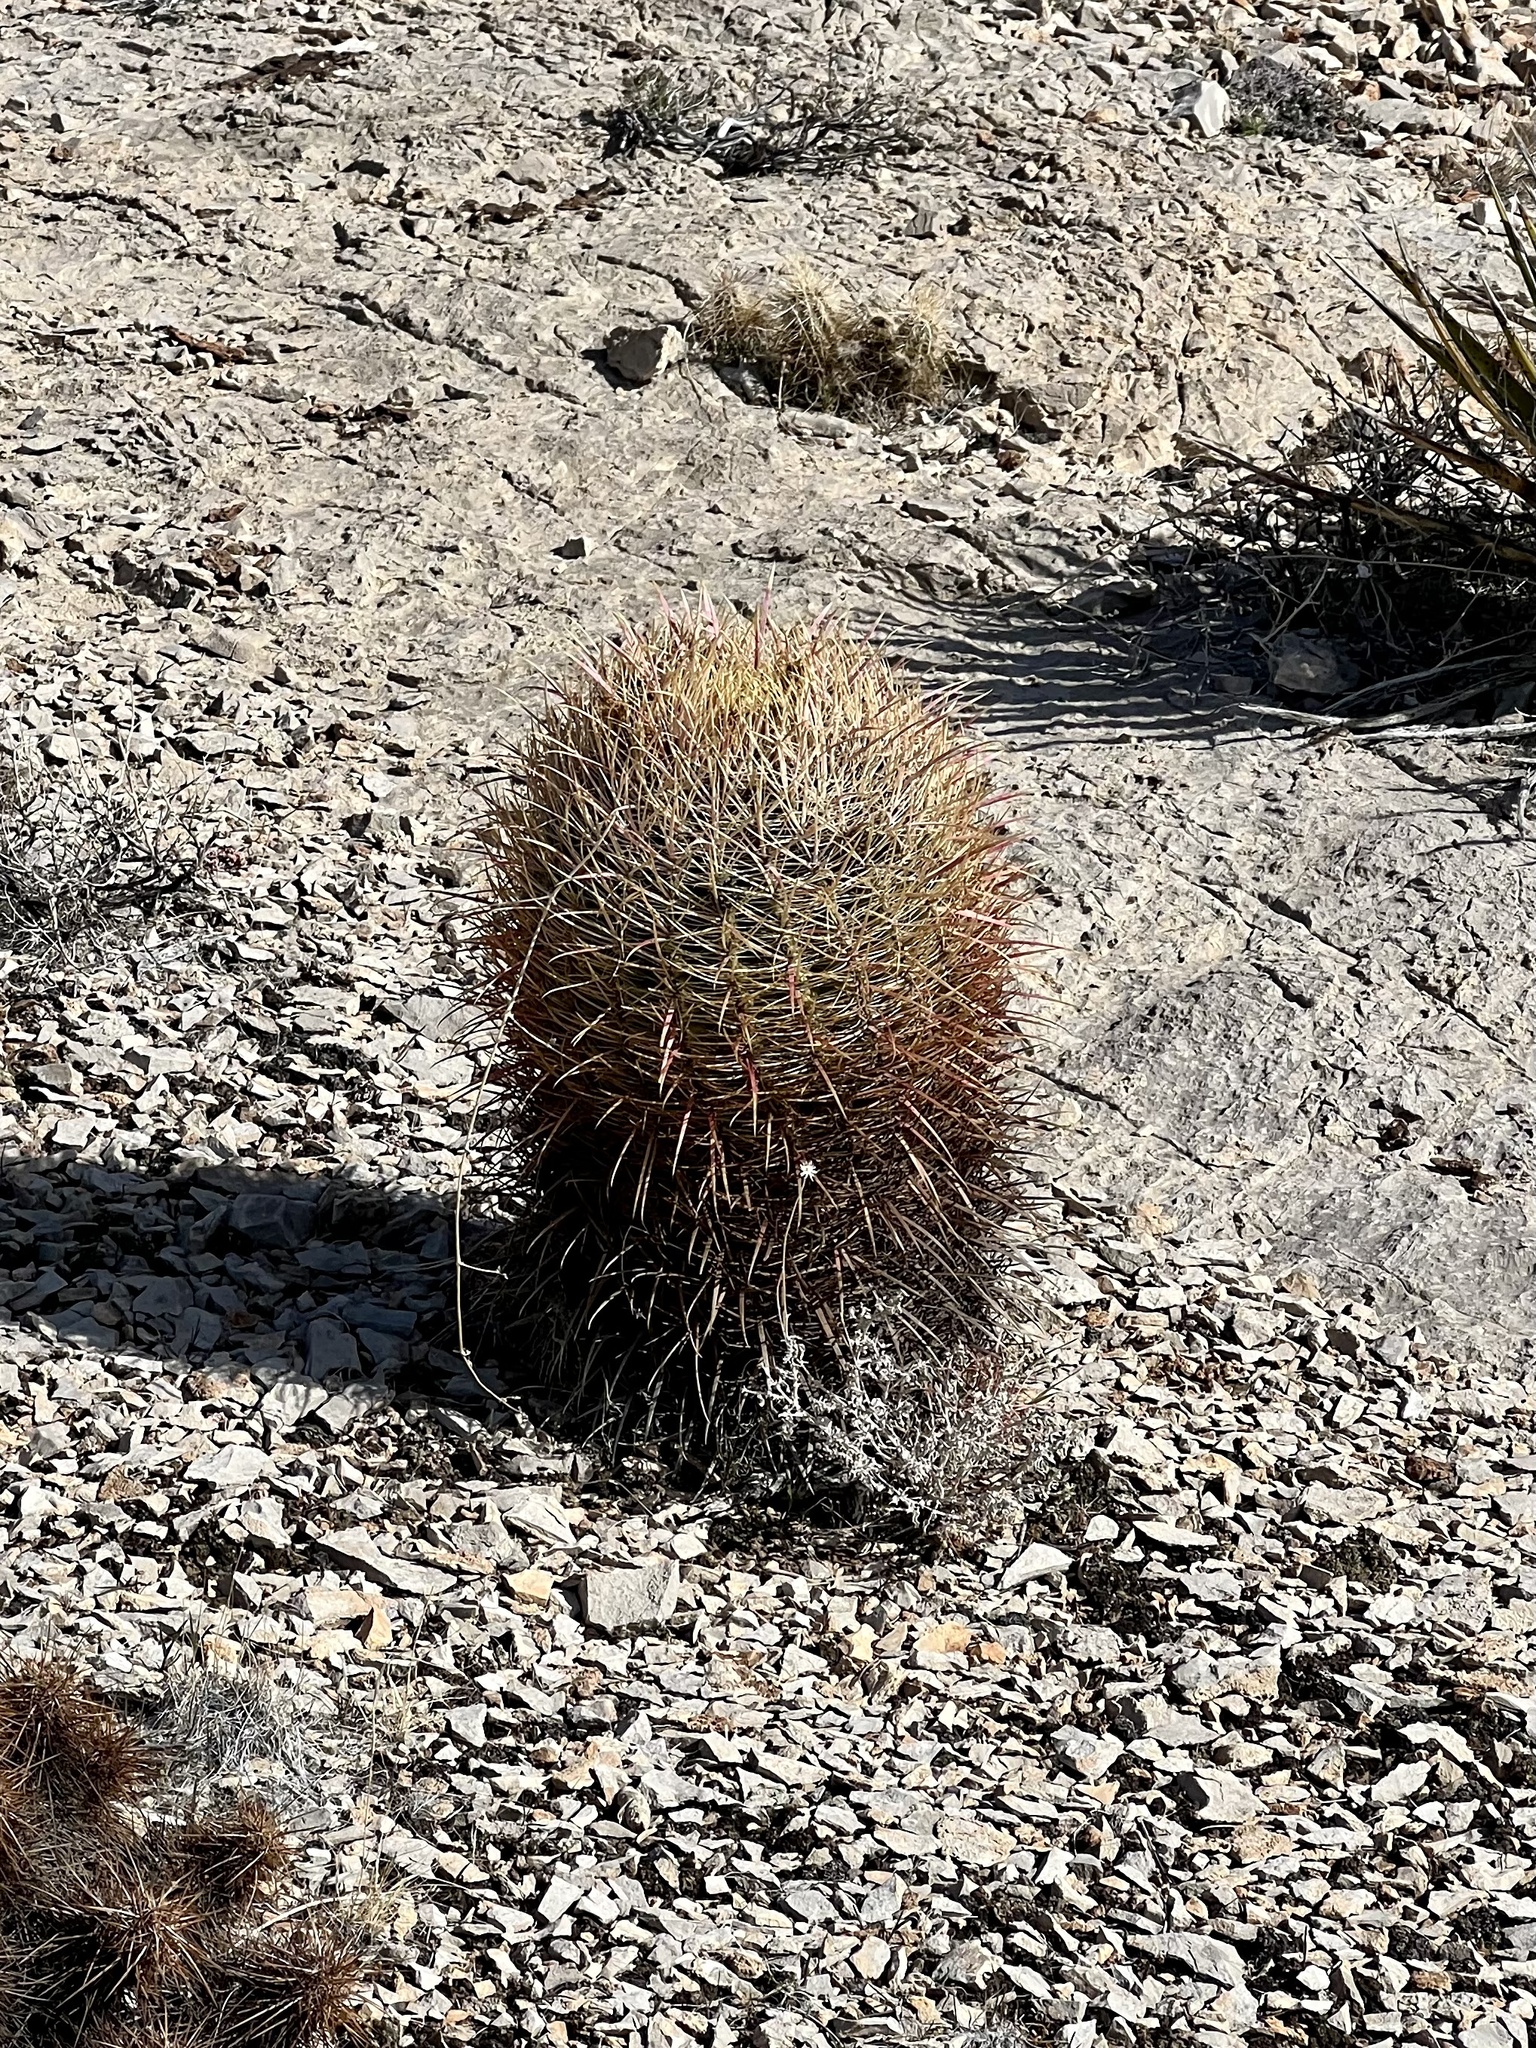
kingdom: Plantae
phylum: Tracheophyta
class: Magnoliopsida
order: Caryophyllales
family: Cactaceae
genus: Ferocactus
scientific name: Ferocactus cylindraceus
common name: California barrel cactus
